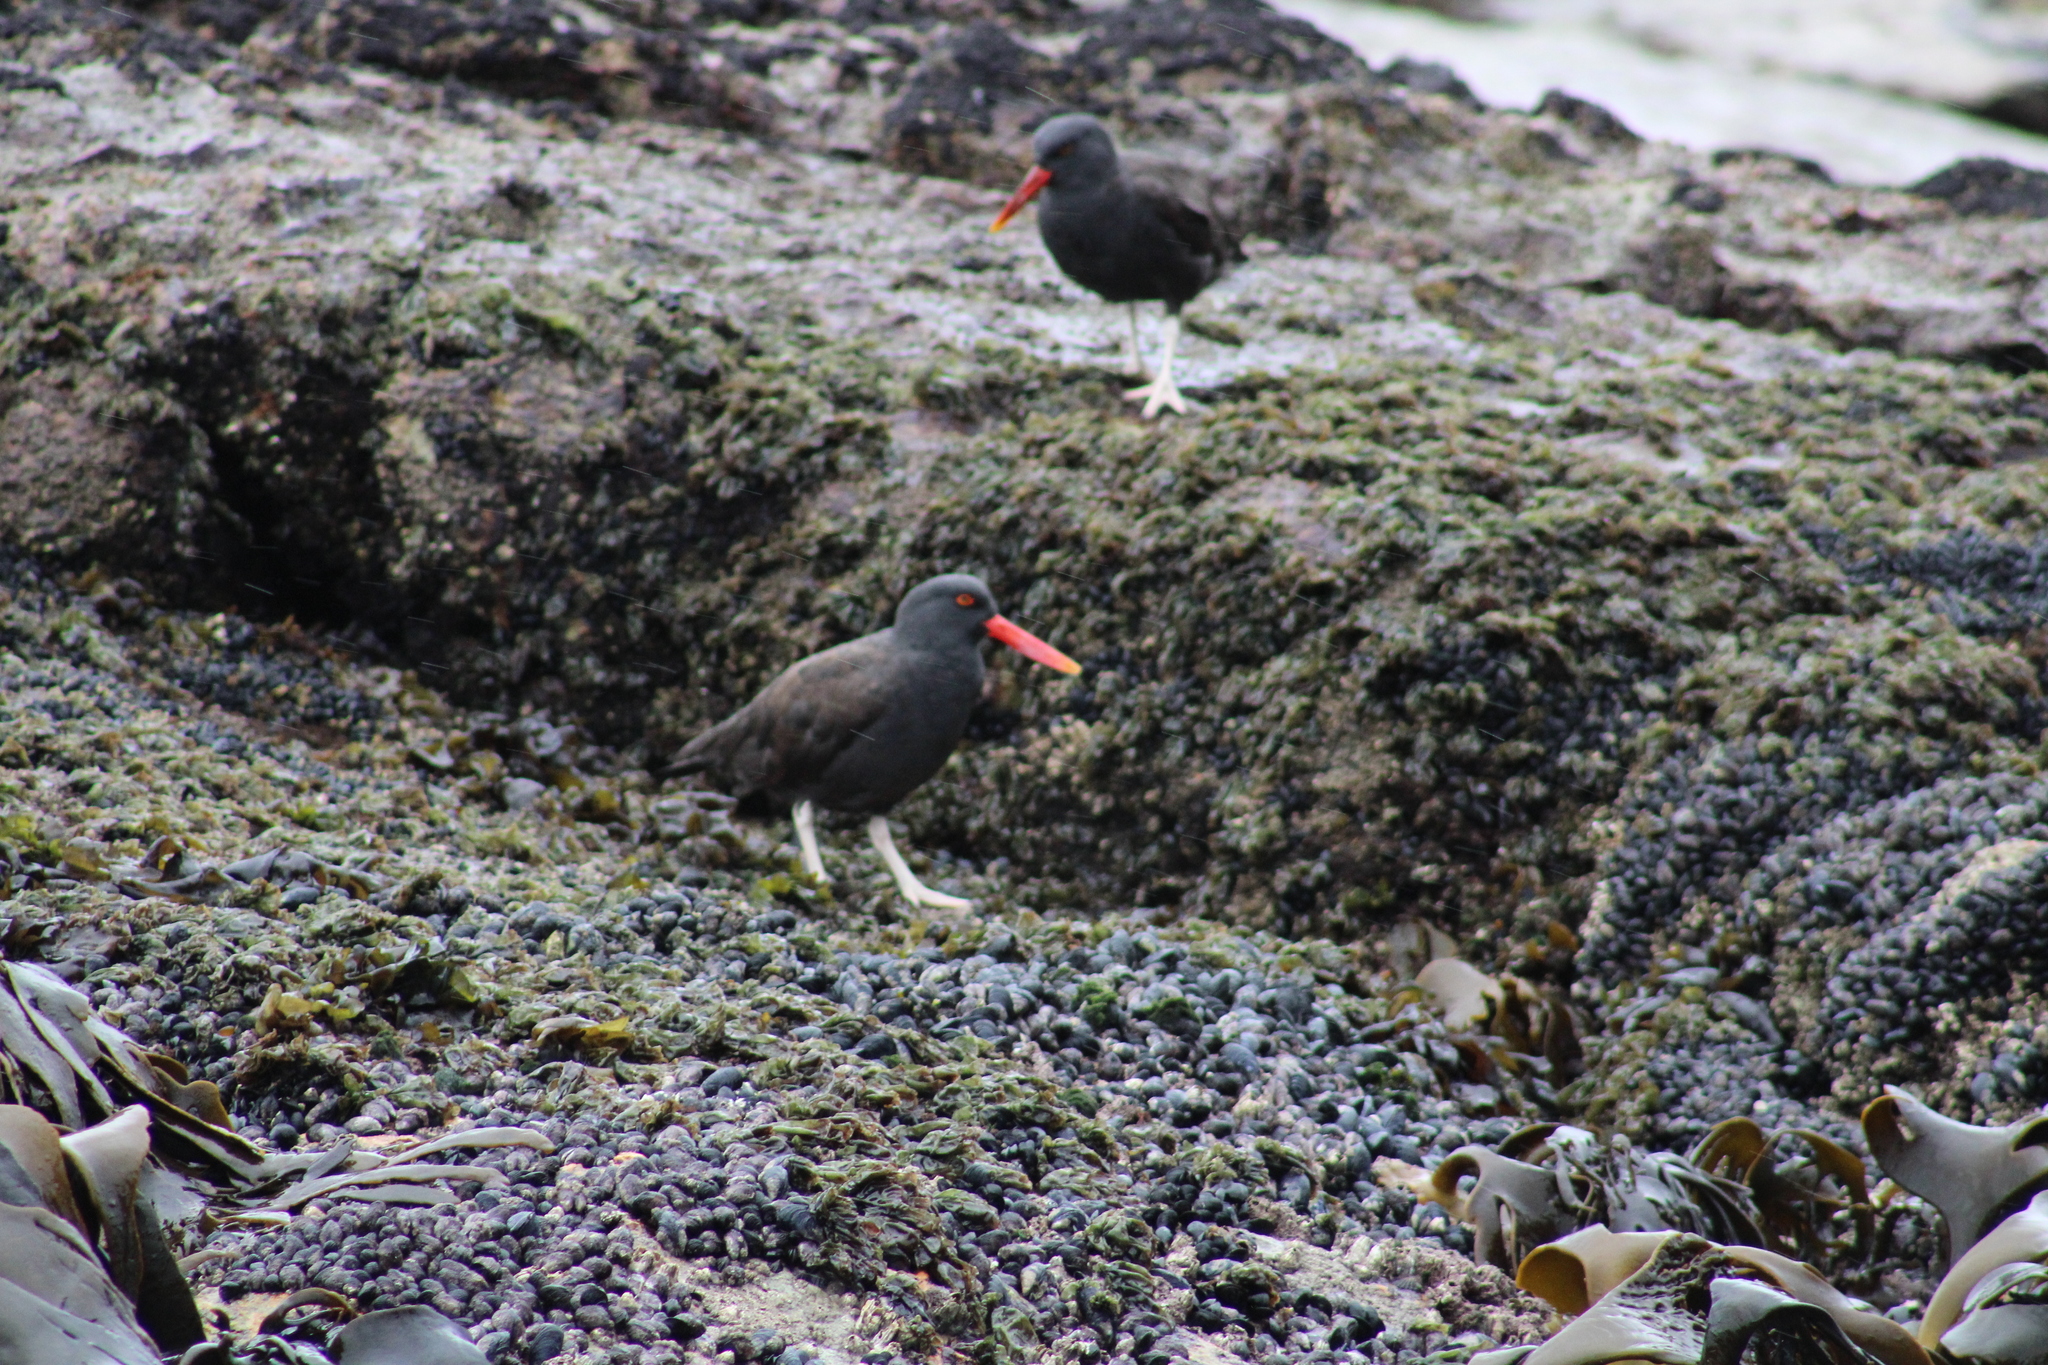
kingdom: Animalia
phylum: Chordata
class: Aves
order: Charadriiformes
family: Haematopodidae
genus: Haematopus
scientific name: Haematopus ater
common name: Blackish oystercatcher
